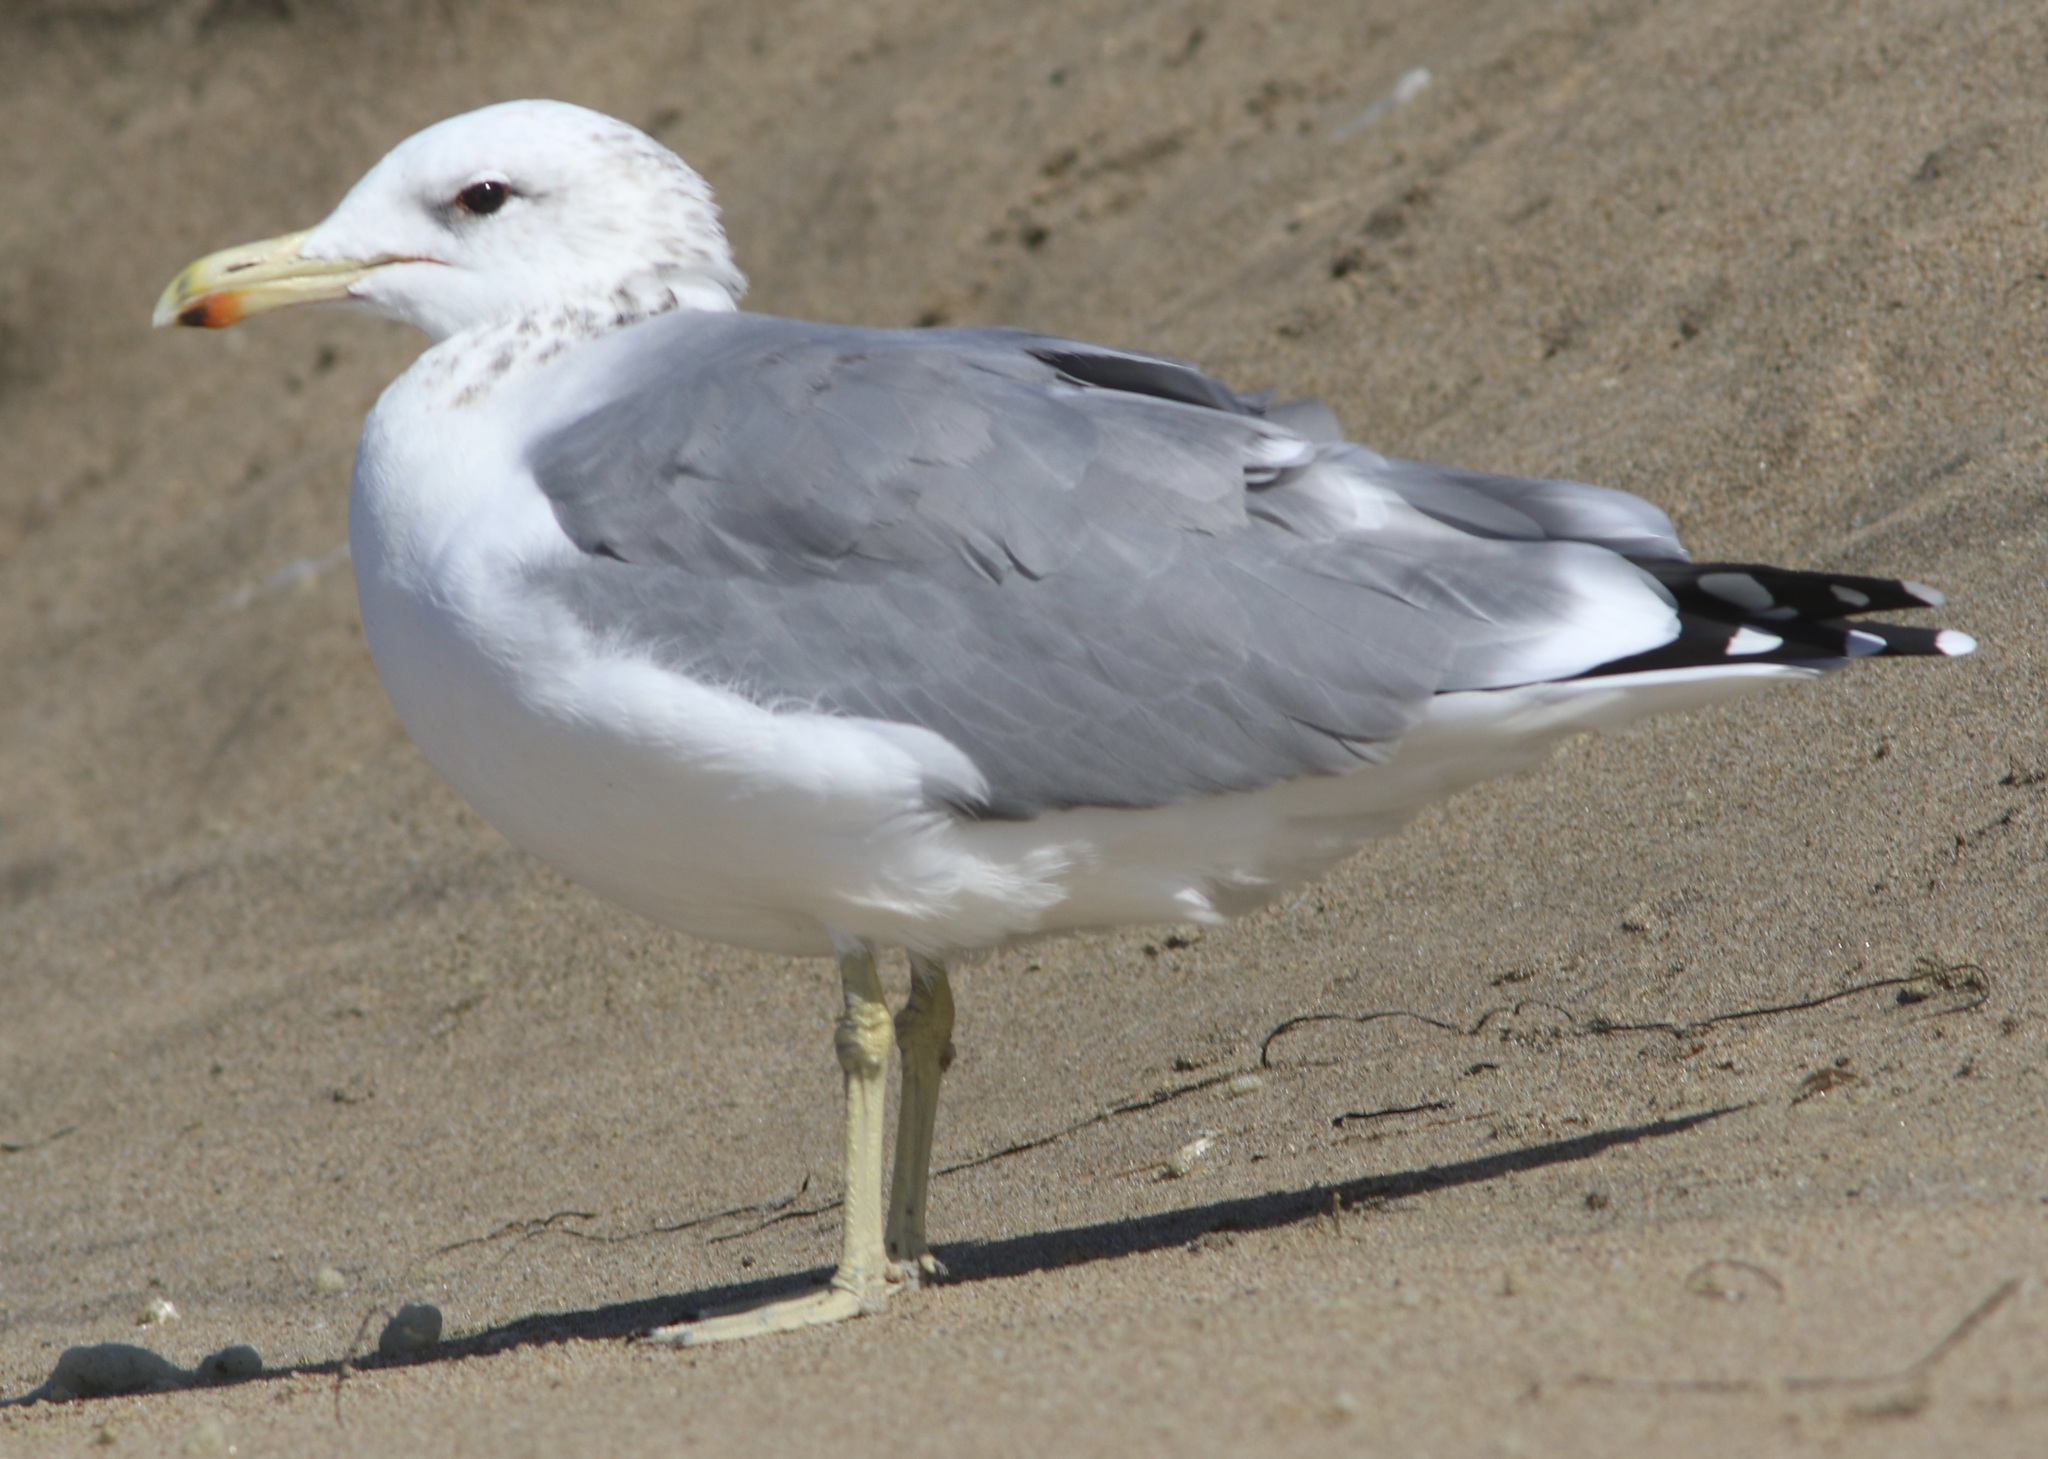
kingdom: Animalia
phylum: Chordata
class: Aves
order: Charadriiformes
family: Laridae
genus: Larus
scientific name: Larus californicus
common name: California gull
